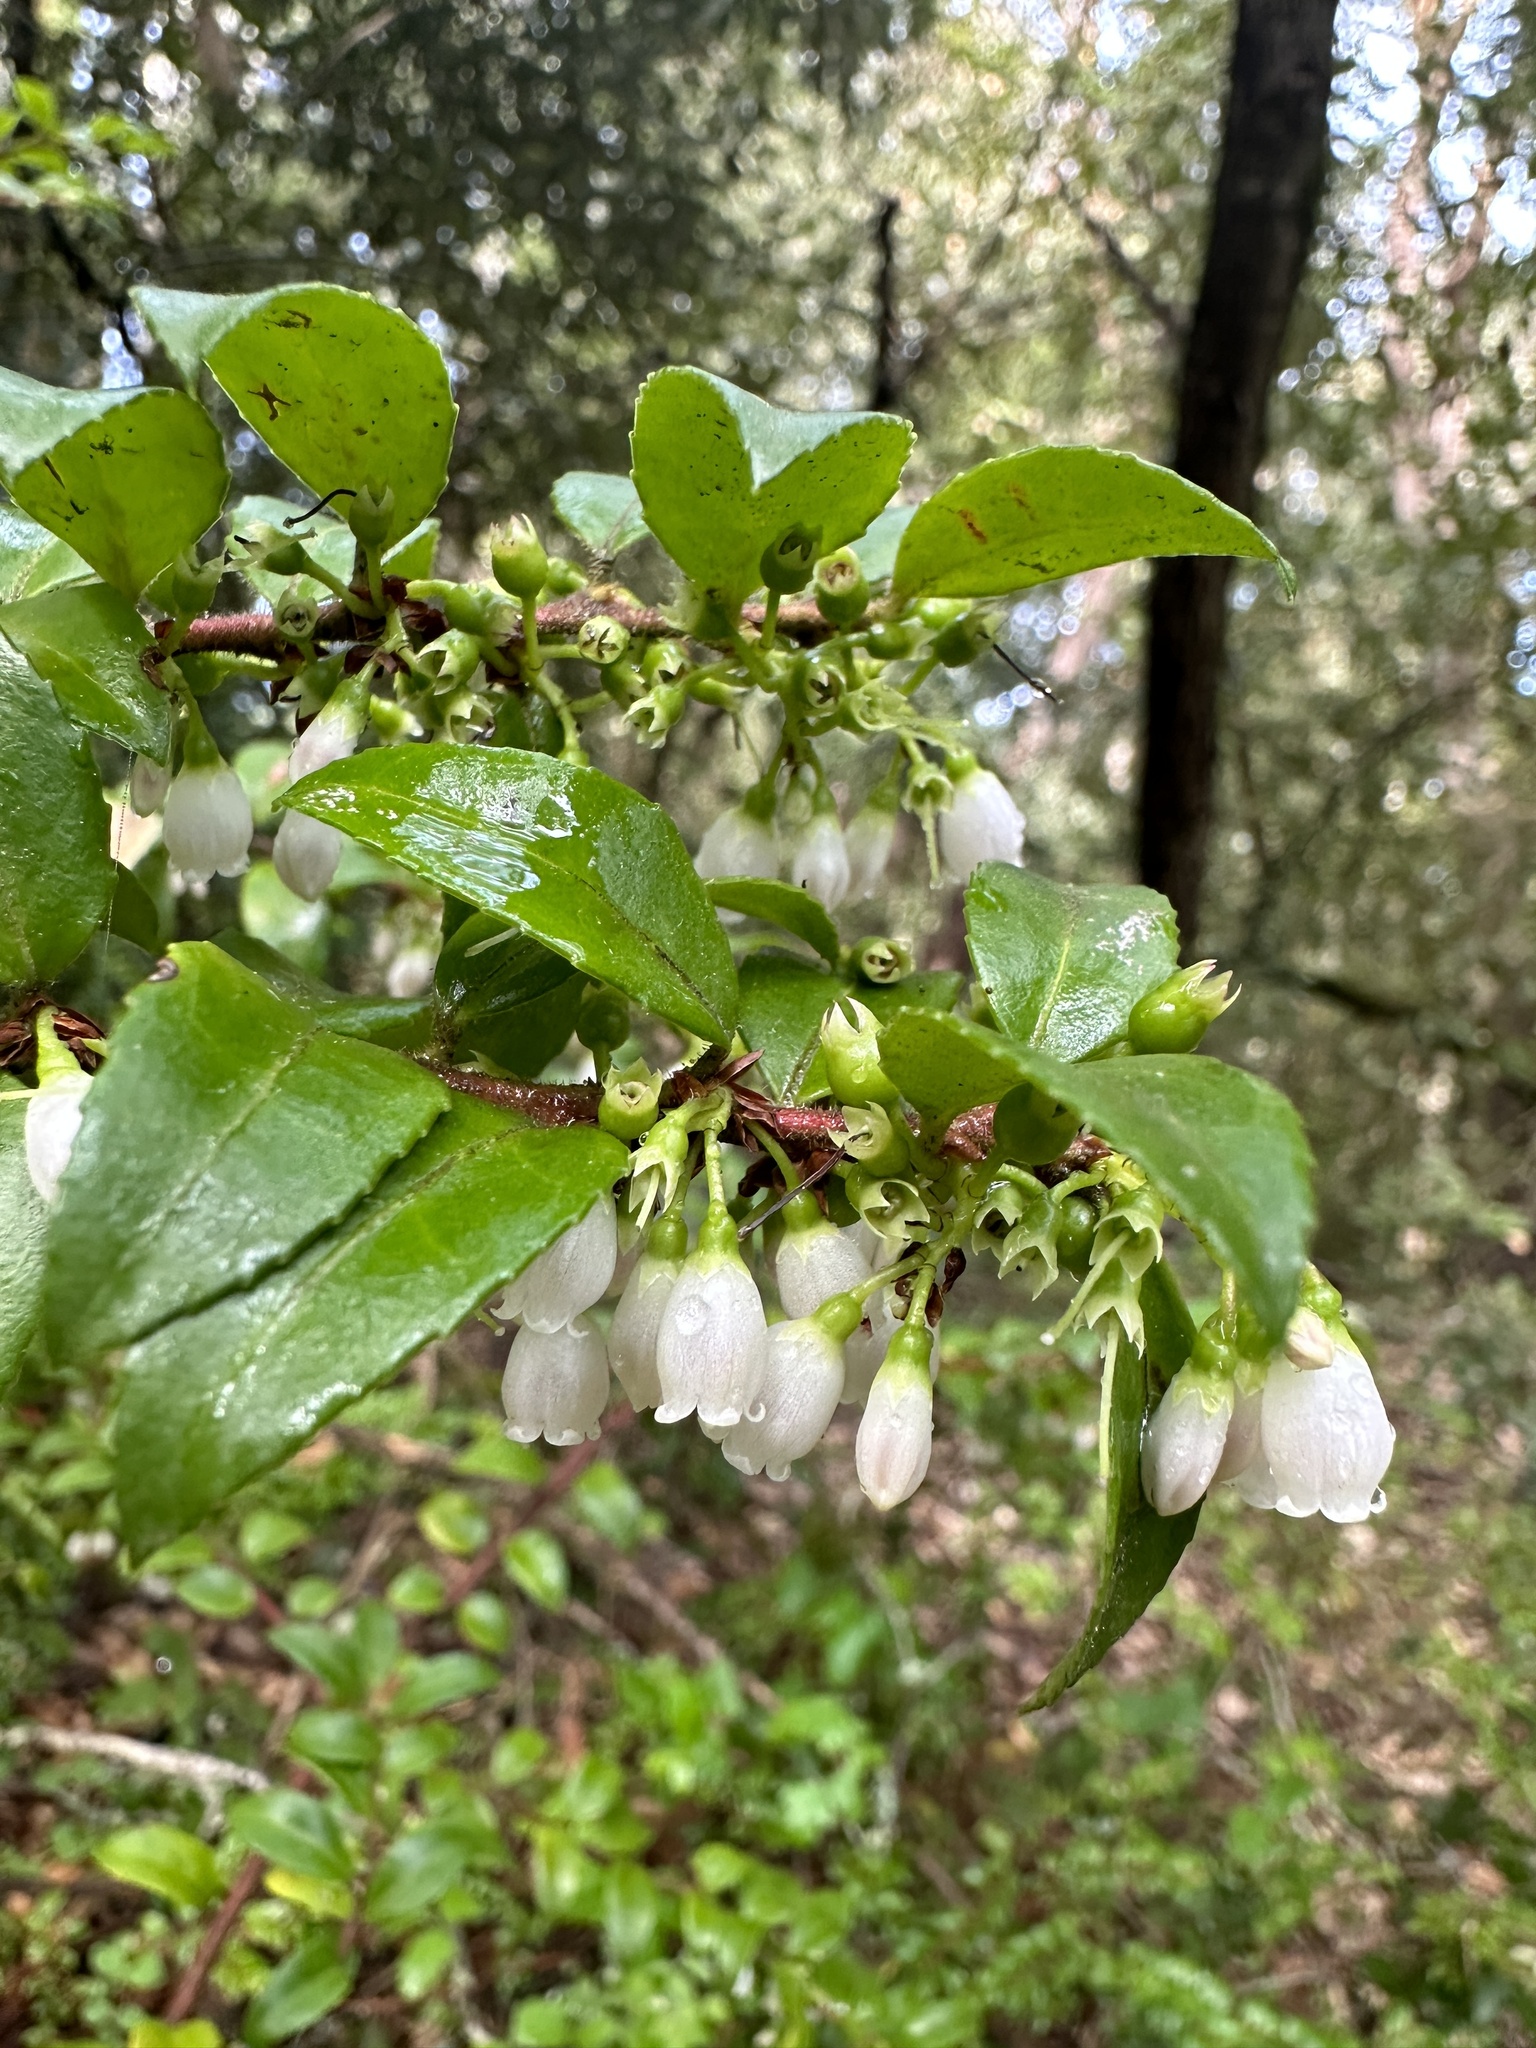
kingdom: Plantae
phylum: Tracheophyta
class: Magnoliopsida
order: Ericales
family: Ericaceae
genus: Vaccinium
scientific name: Vaccinium ovatum
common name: California-huckleberry
